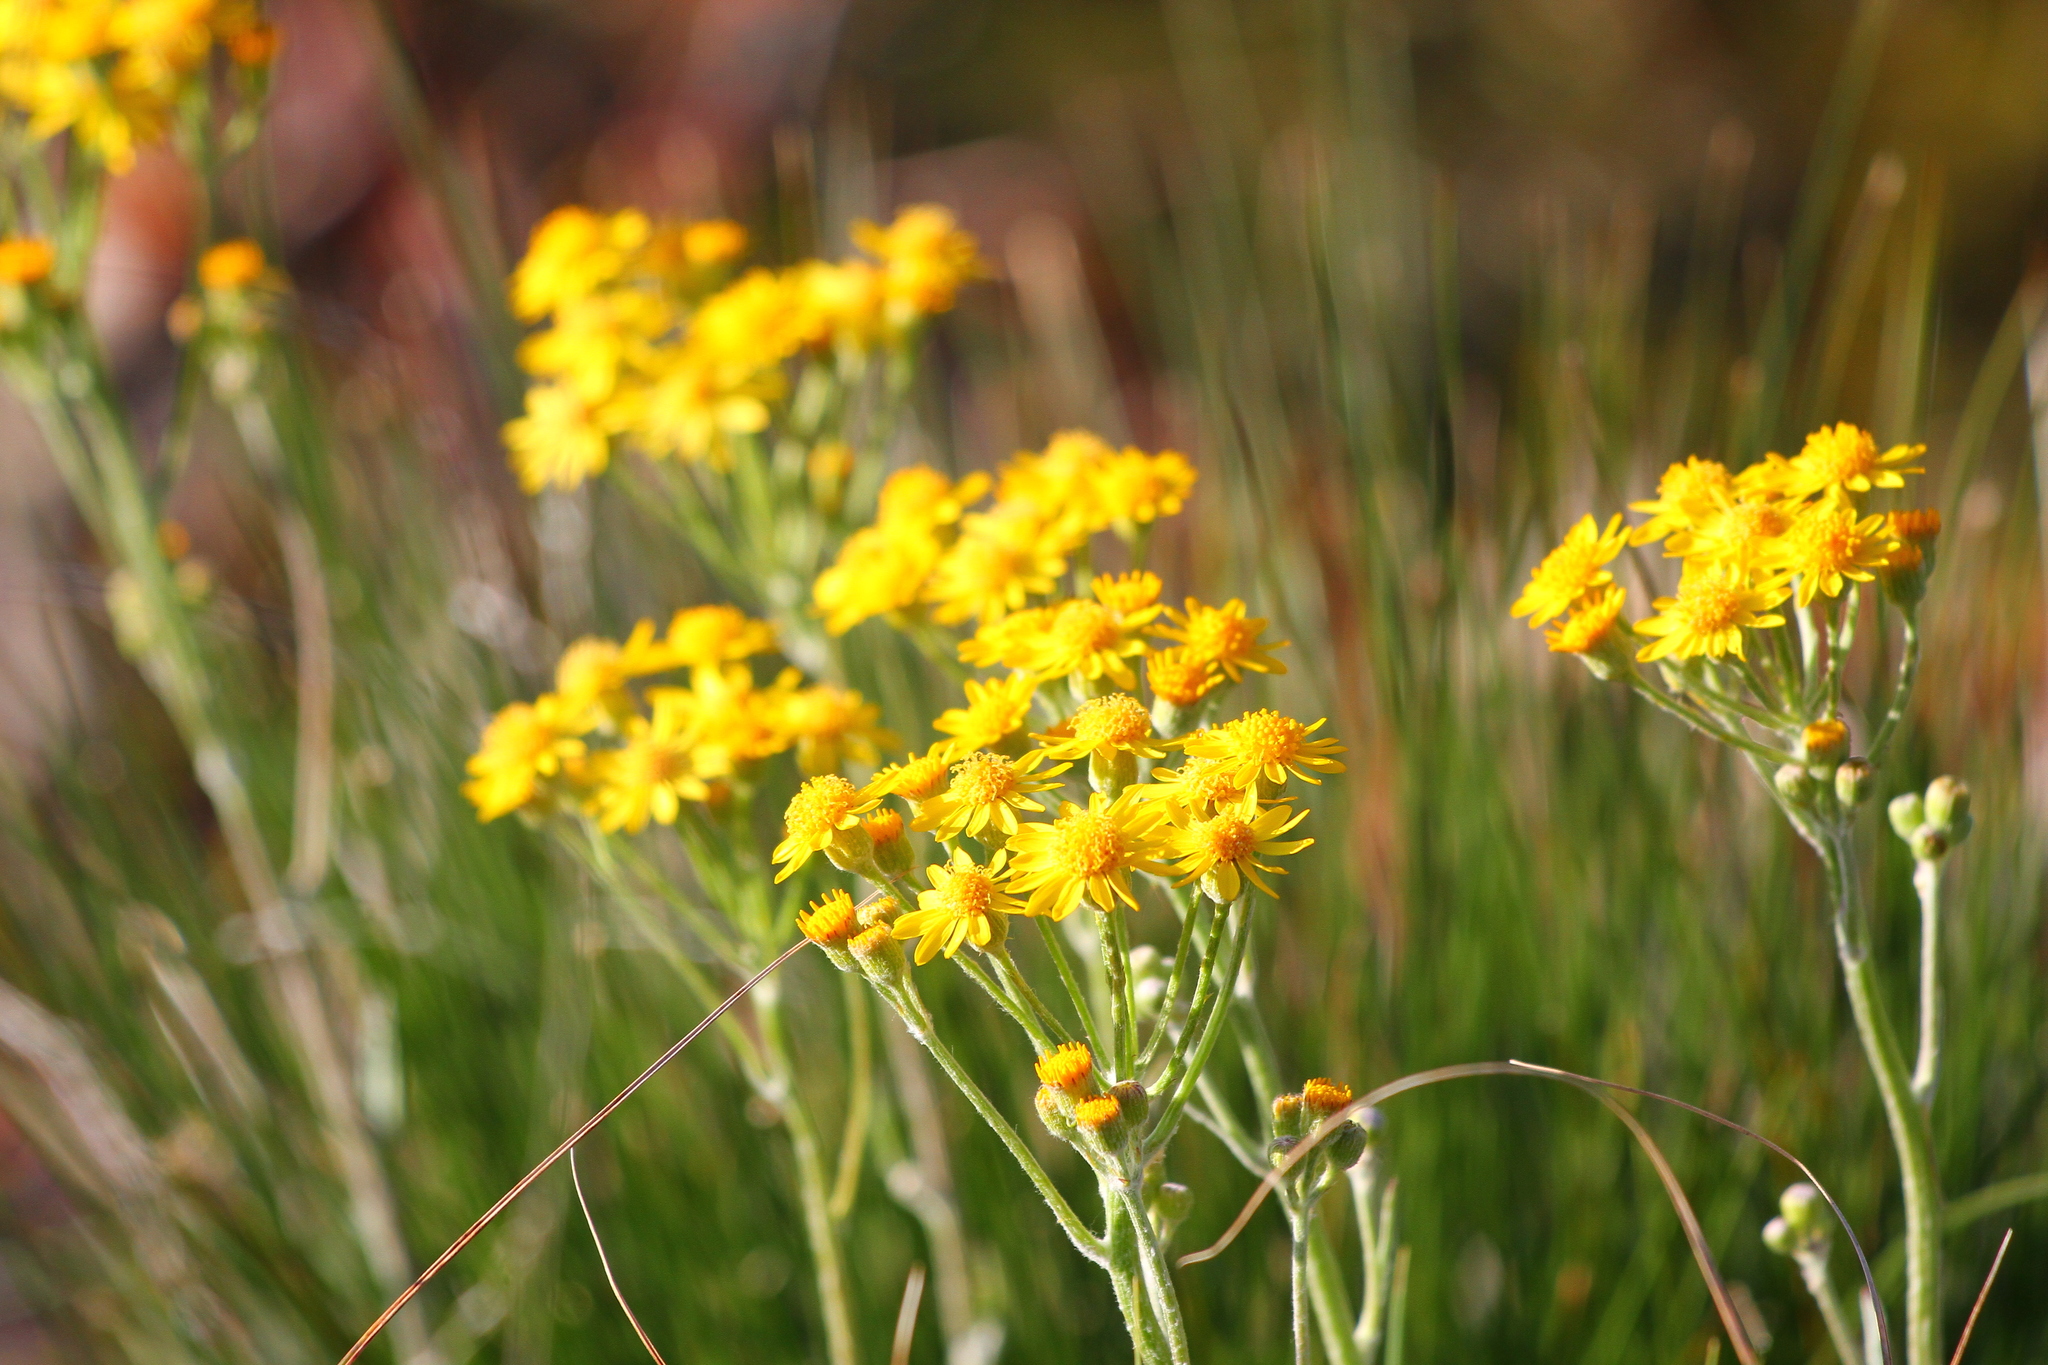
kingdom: Plantae
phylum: Tracheophyta
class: Magnoliopsida
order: Asterales
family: Asteraceae
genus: Packera
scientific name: Packera dubia
